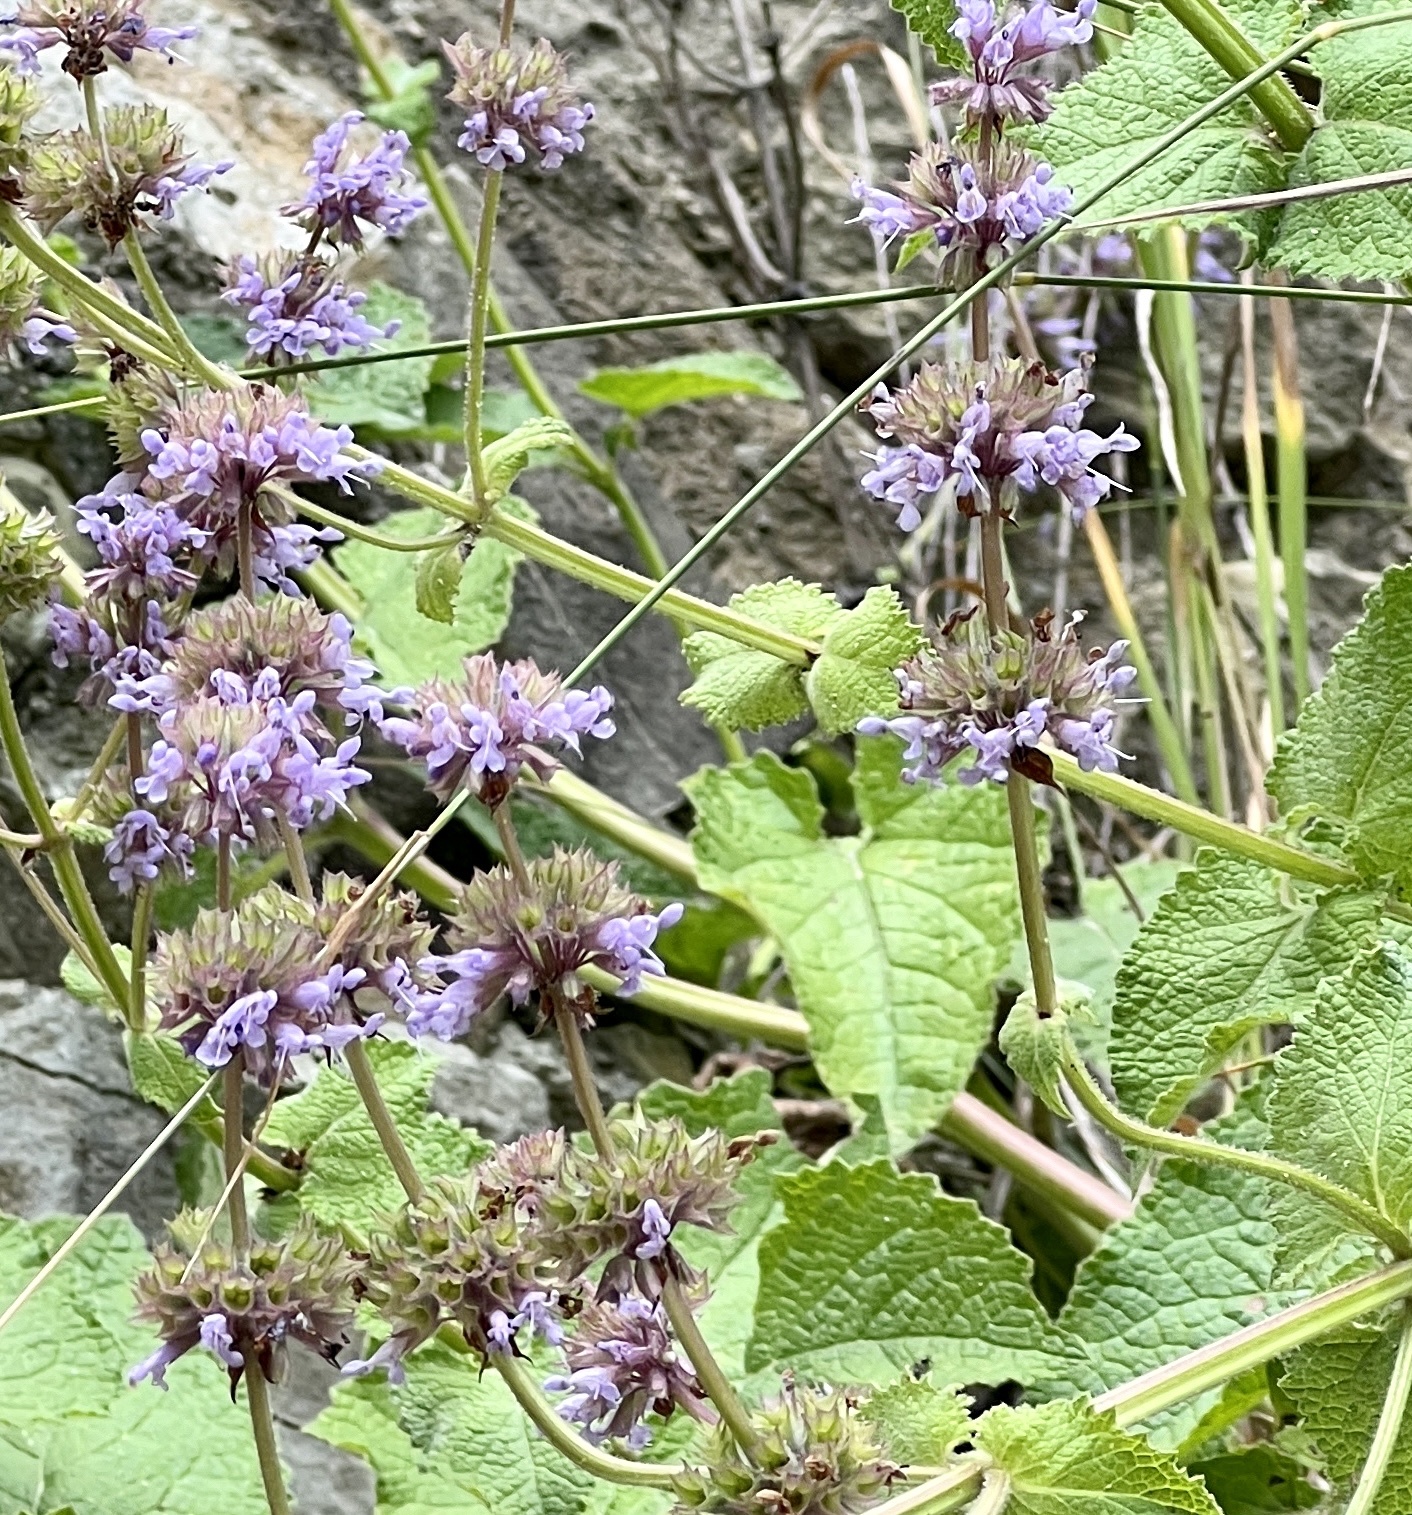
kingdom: Plantae
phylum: Tracheophyta
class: Magnoliopsida
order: Lamiales
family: Lamiaceae
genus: Salvia
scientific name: Salvia verticillata
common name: Whorled clary
